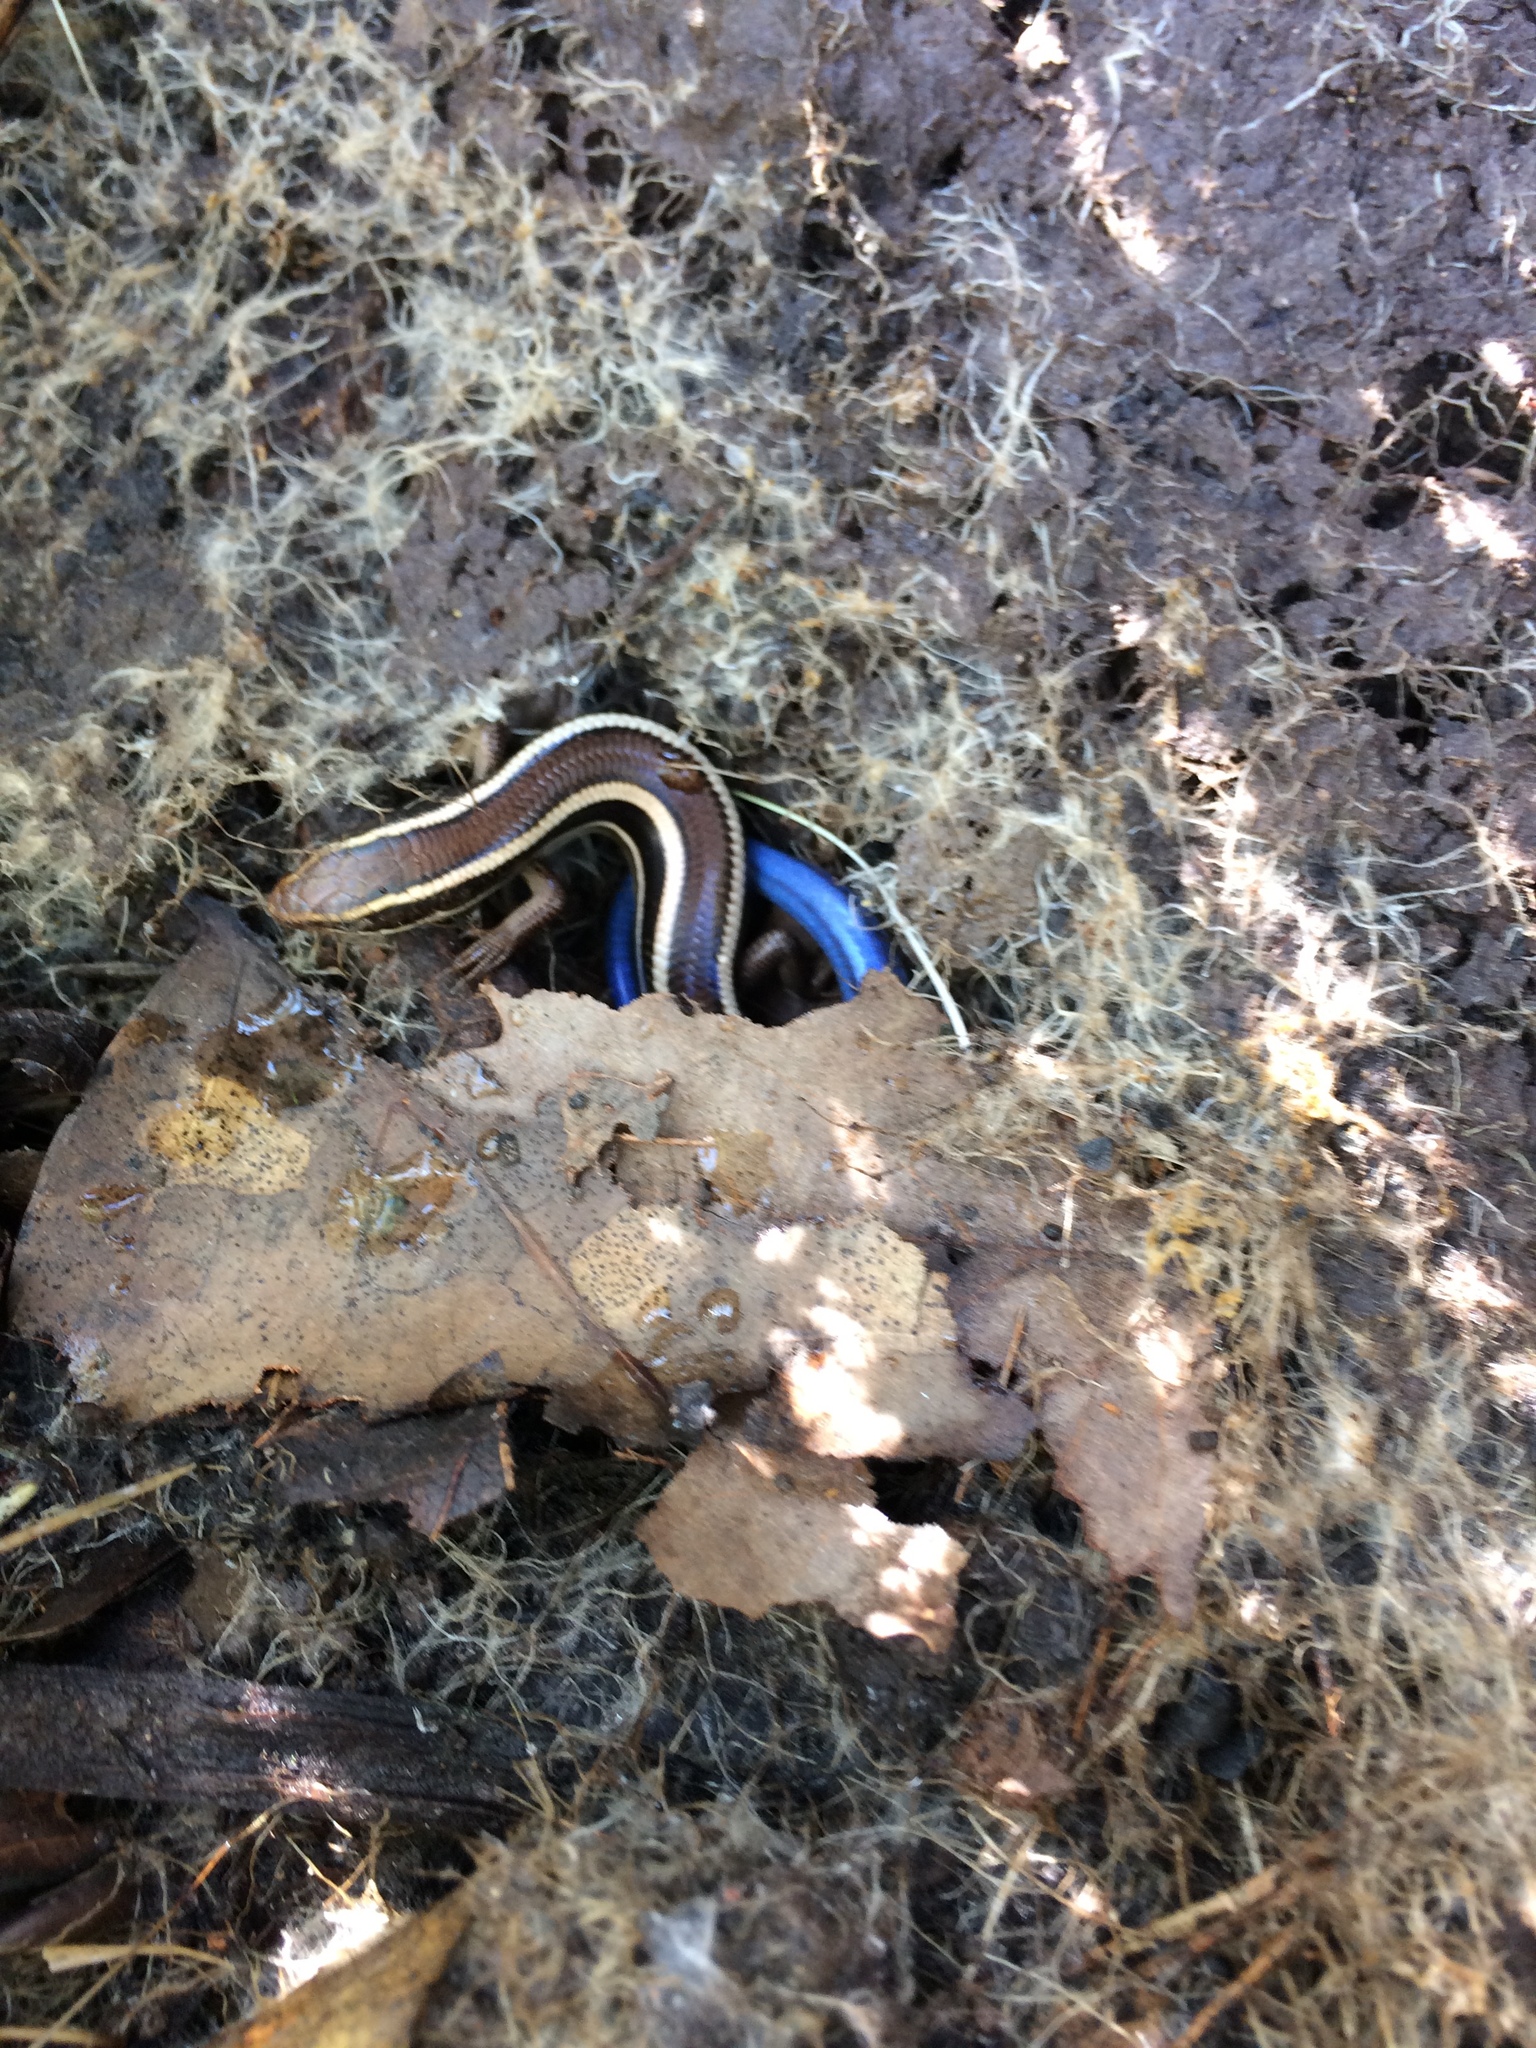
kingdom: Animalia
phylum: Chordata
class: Squamata
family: Scincidae
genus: Plestiodon
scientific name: Plestiodon skiltonianus
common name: Coronado island skink [interparietalis]
